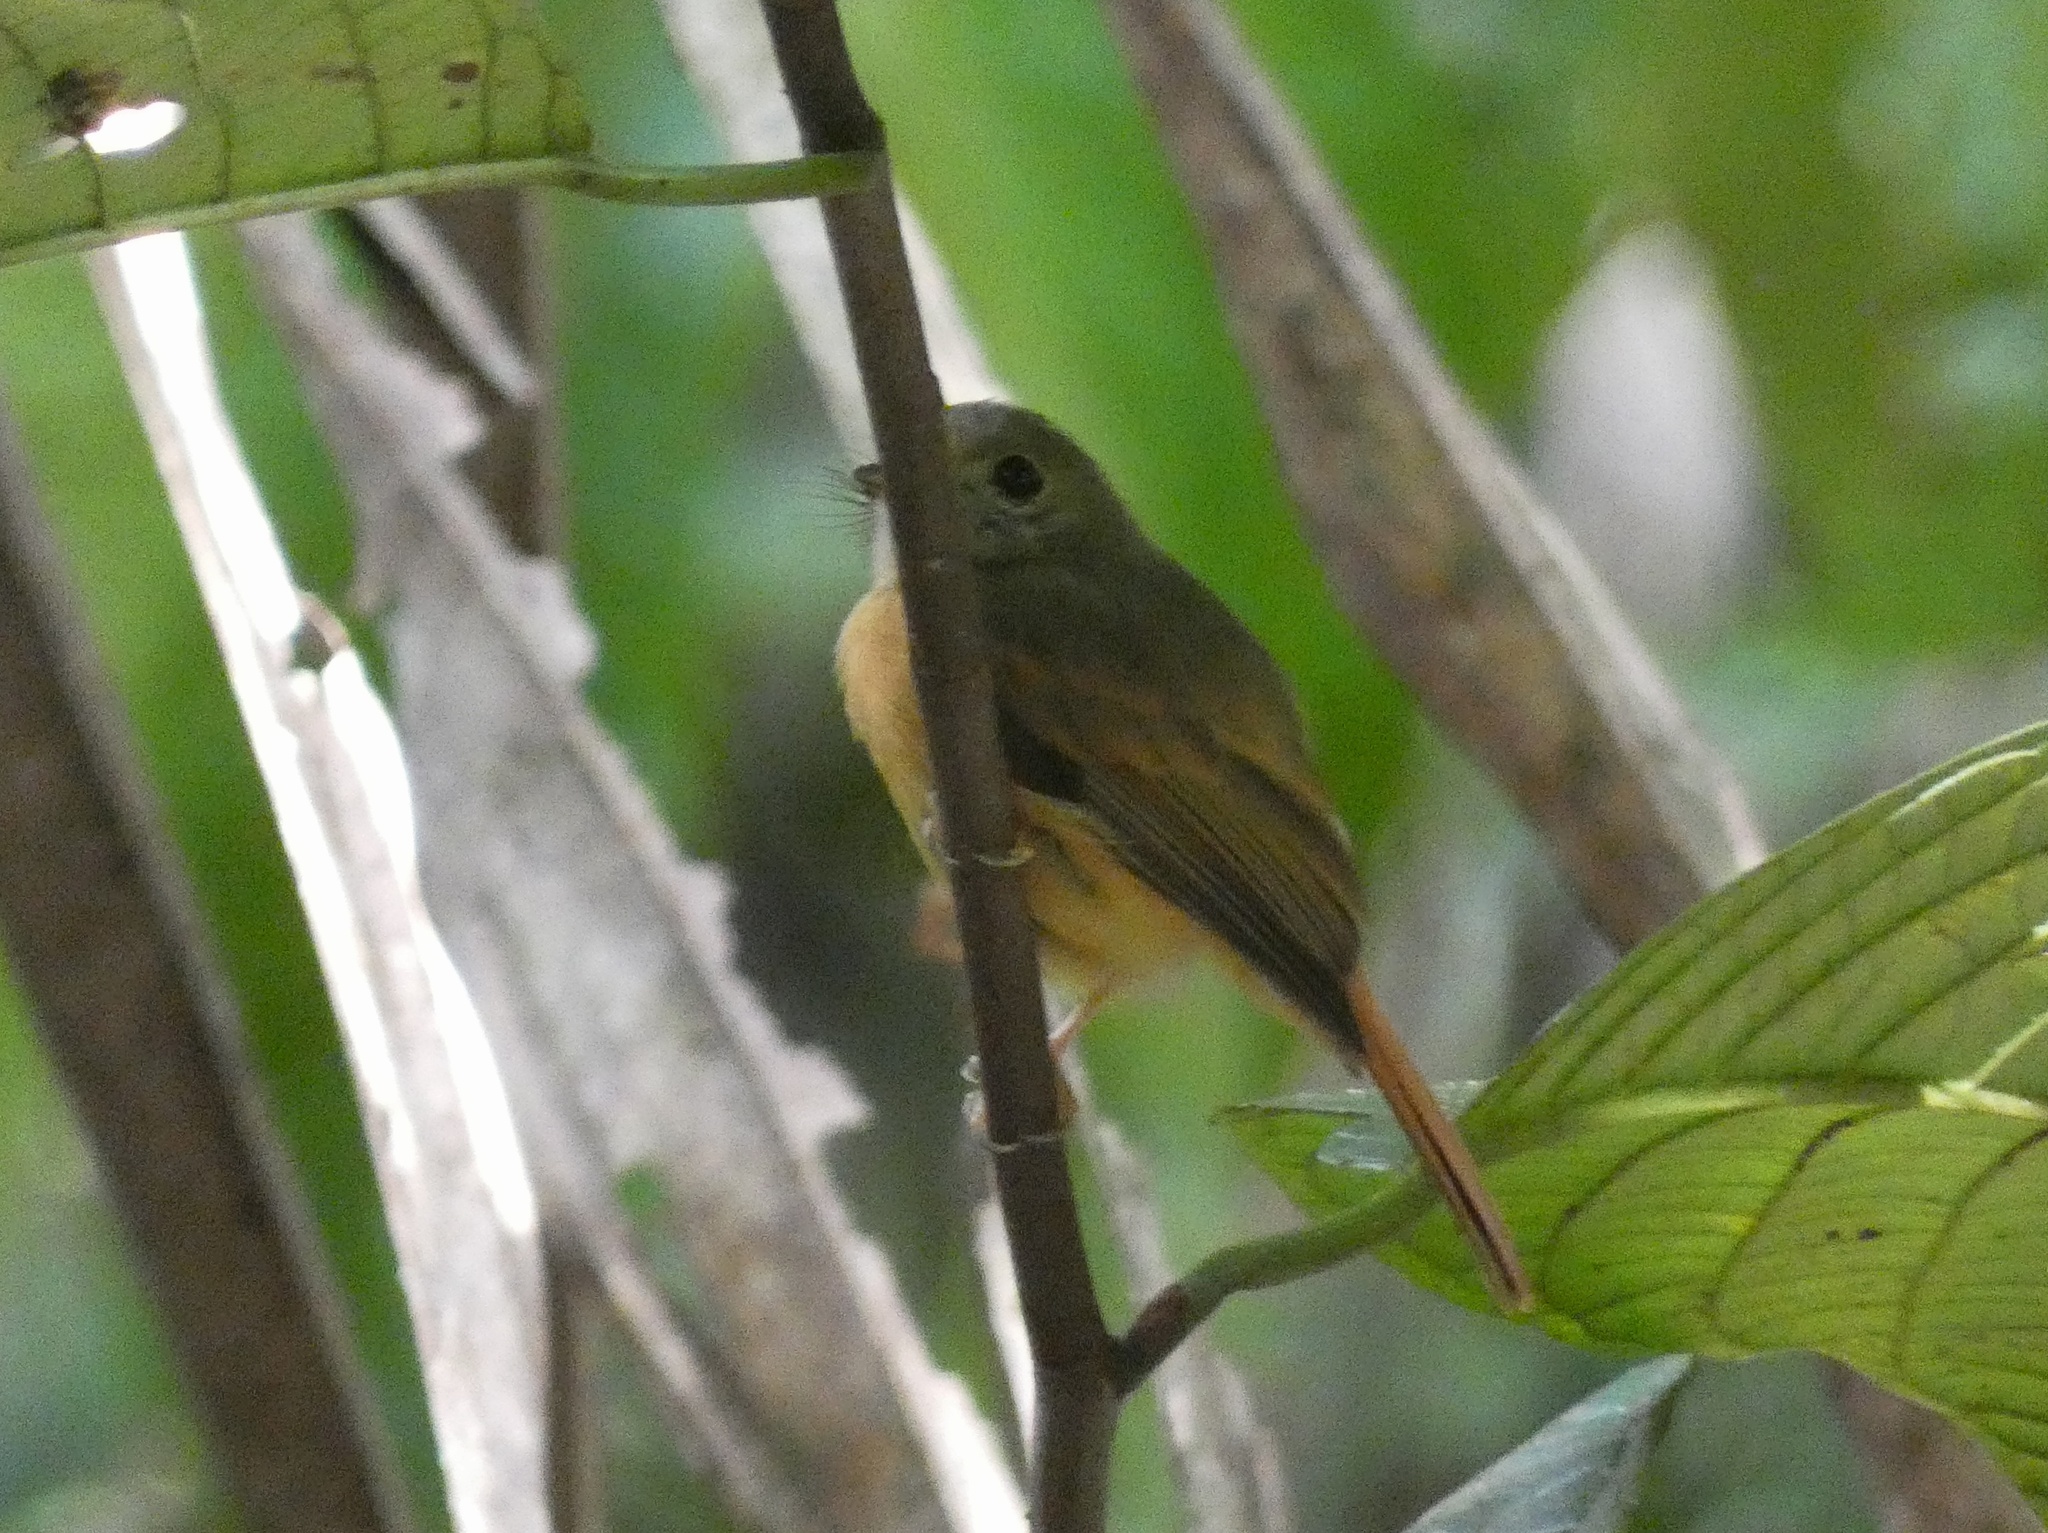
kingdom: Animalia
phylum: Chordata
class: Aves
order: Passeriformes
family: Tyrannidae
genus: Terenotriccus
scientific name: Terenotriccus erythrurus
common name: Ruddy-tailed flycatcher
